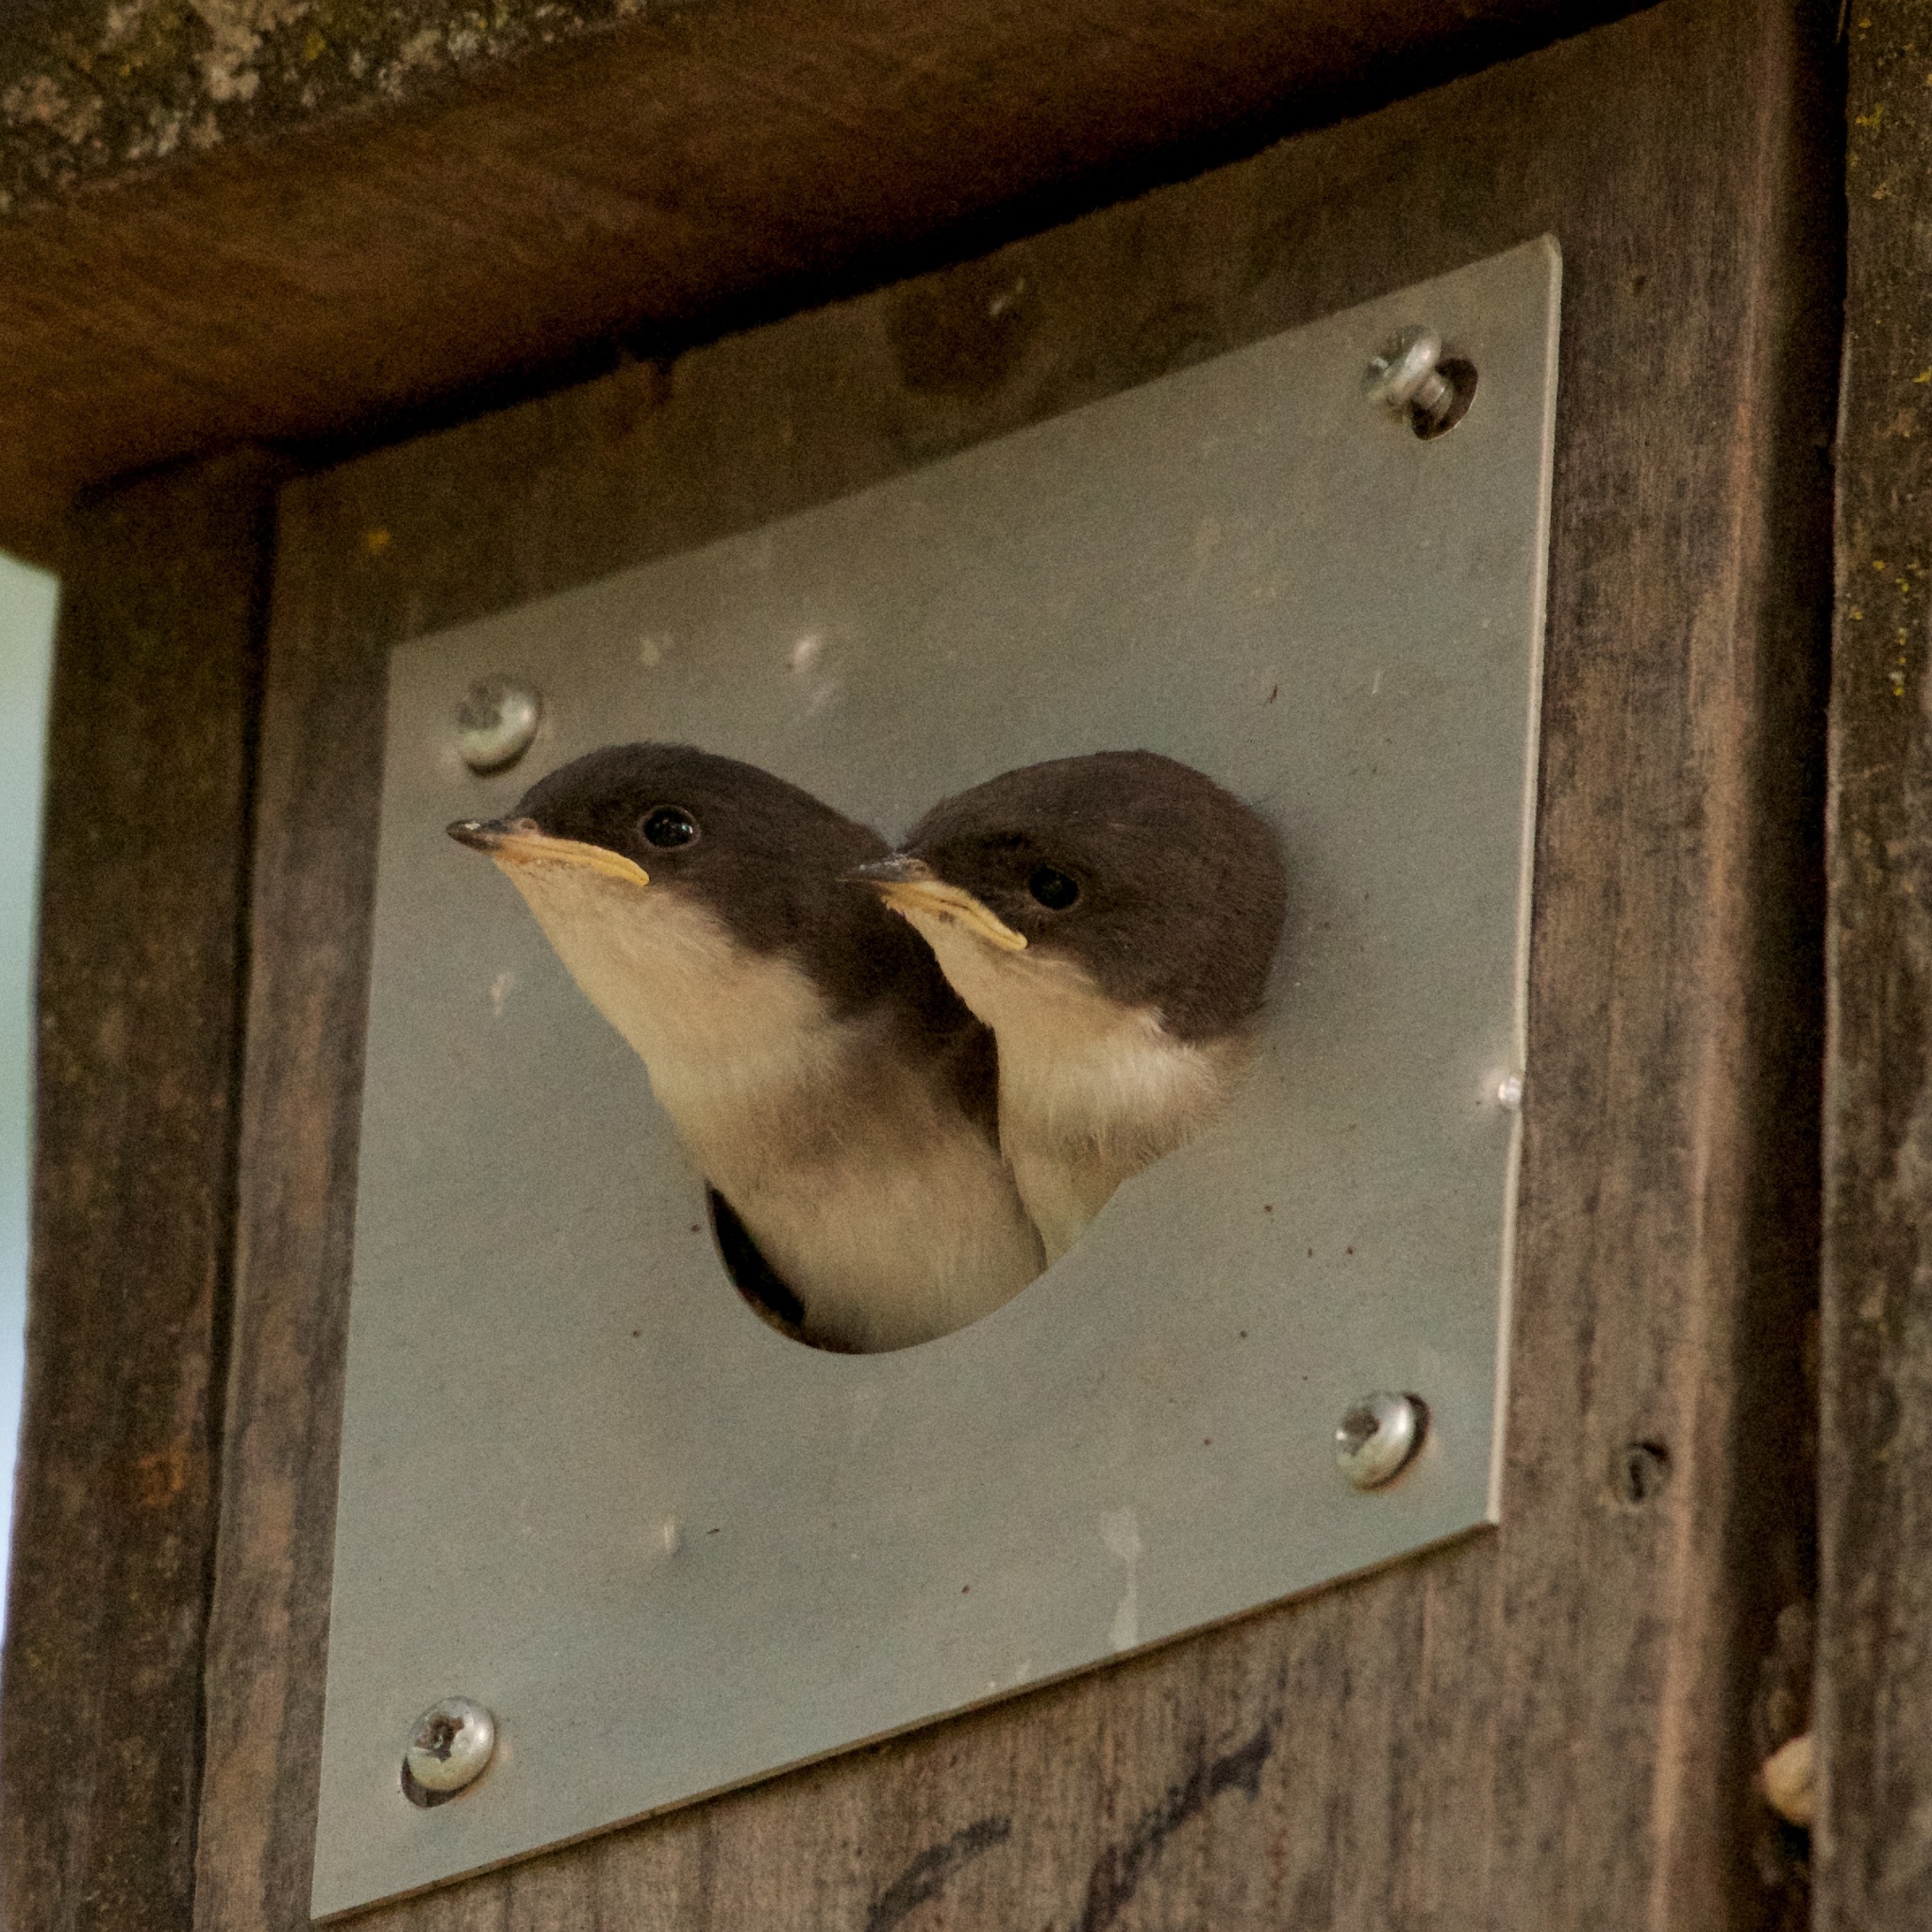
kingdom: Animalia
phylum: Chordata
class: Aves
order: Passeriformes
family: Hirundinidae
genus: Tachycineta
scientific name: Tachycineta bicolor
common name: Tree swallow
